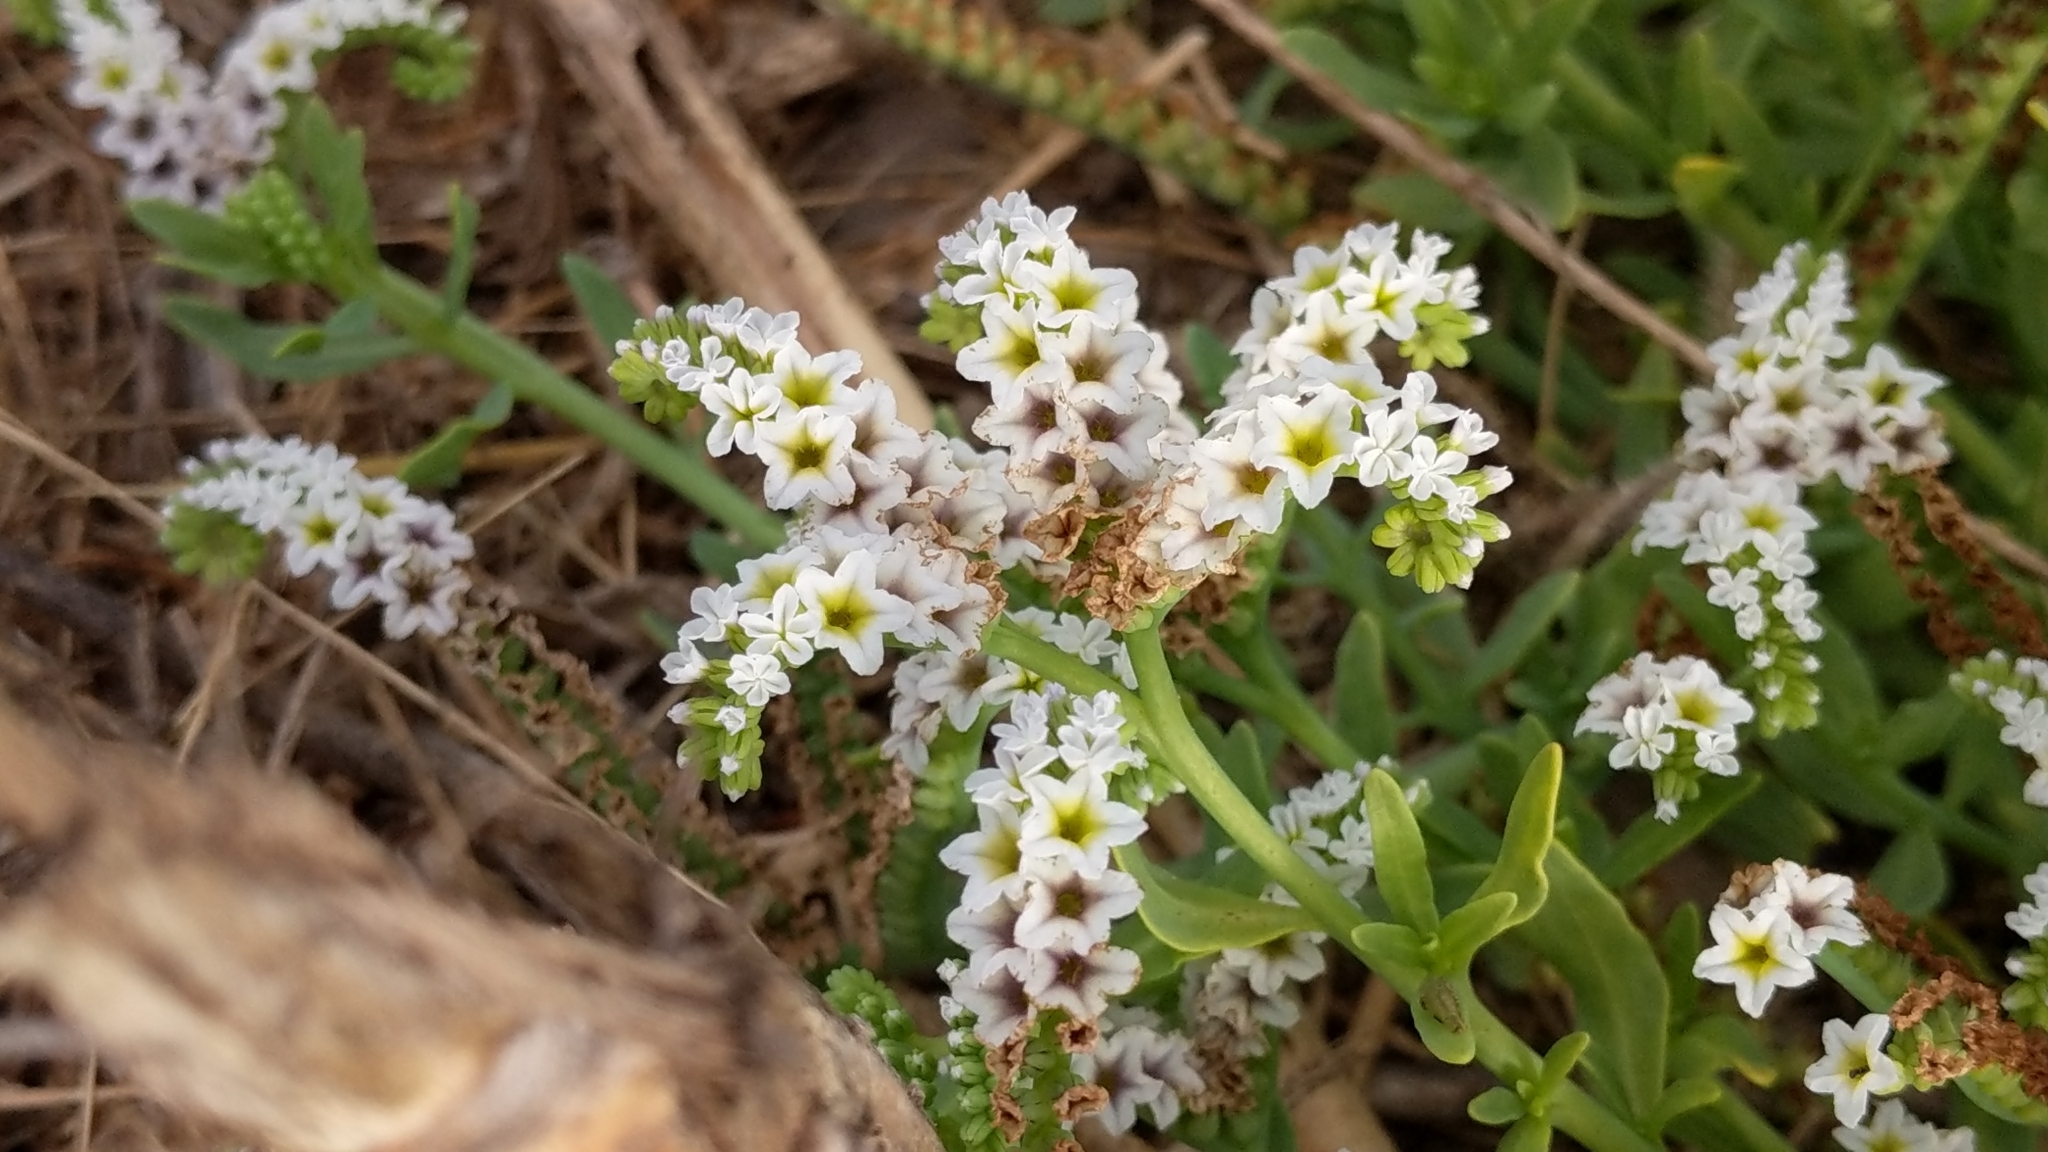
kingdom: Plantae
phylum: Tracheophyta
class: Magnoliopsida
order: Boraginales
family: Heliotropiaceae
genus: Heliotropium
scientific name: Heliotropium curassavicum
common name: Seaside heliotrope
